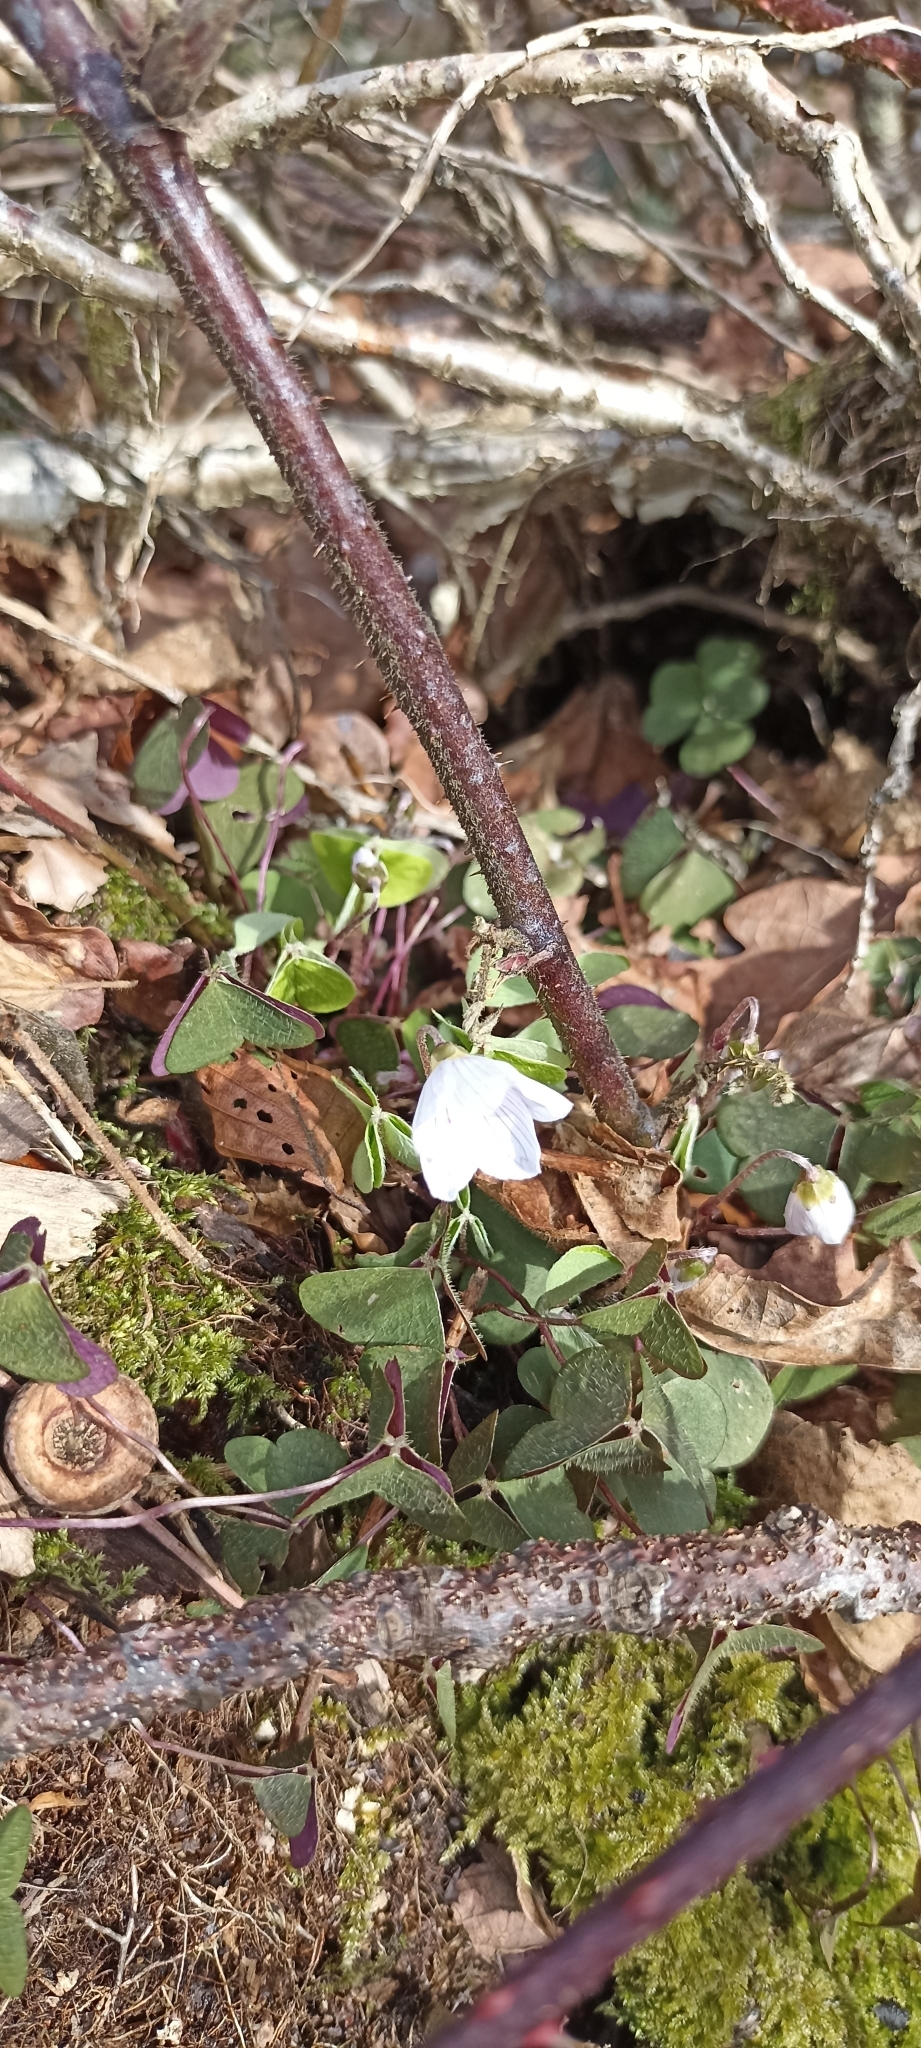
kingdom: Plantae
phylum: Tracheophyta
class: Magnoliopsida
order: Oxalidales
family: Oxalidaceae
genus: Oxalis
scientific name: Oxalis acetosella
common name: Wood-sorrel
